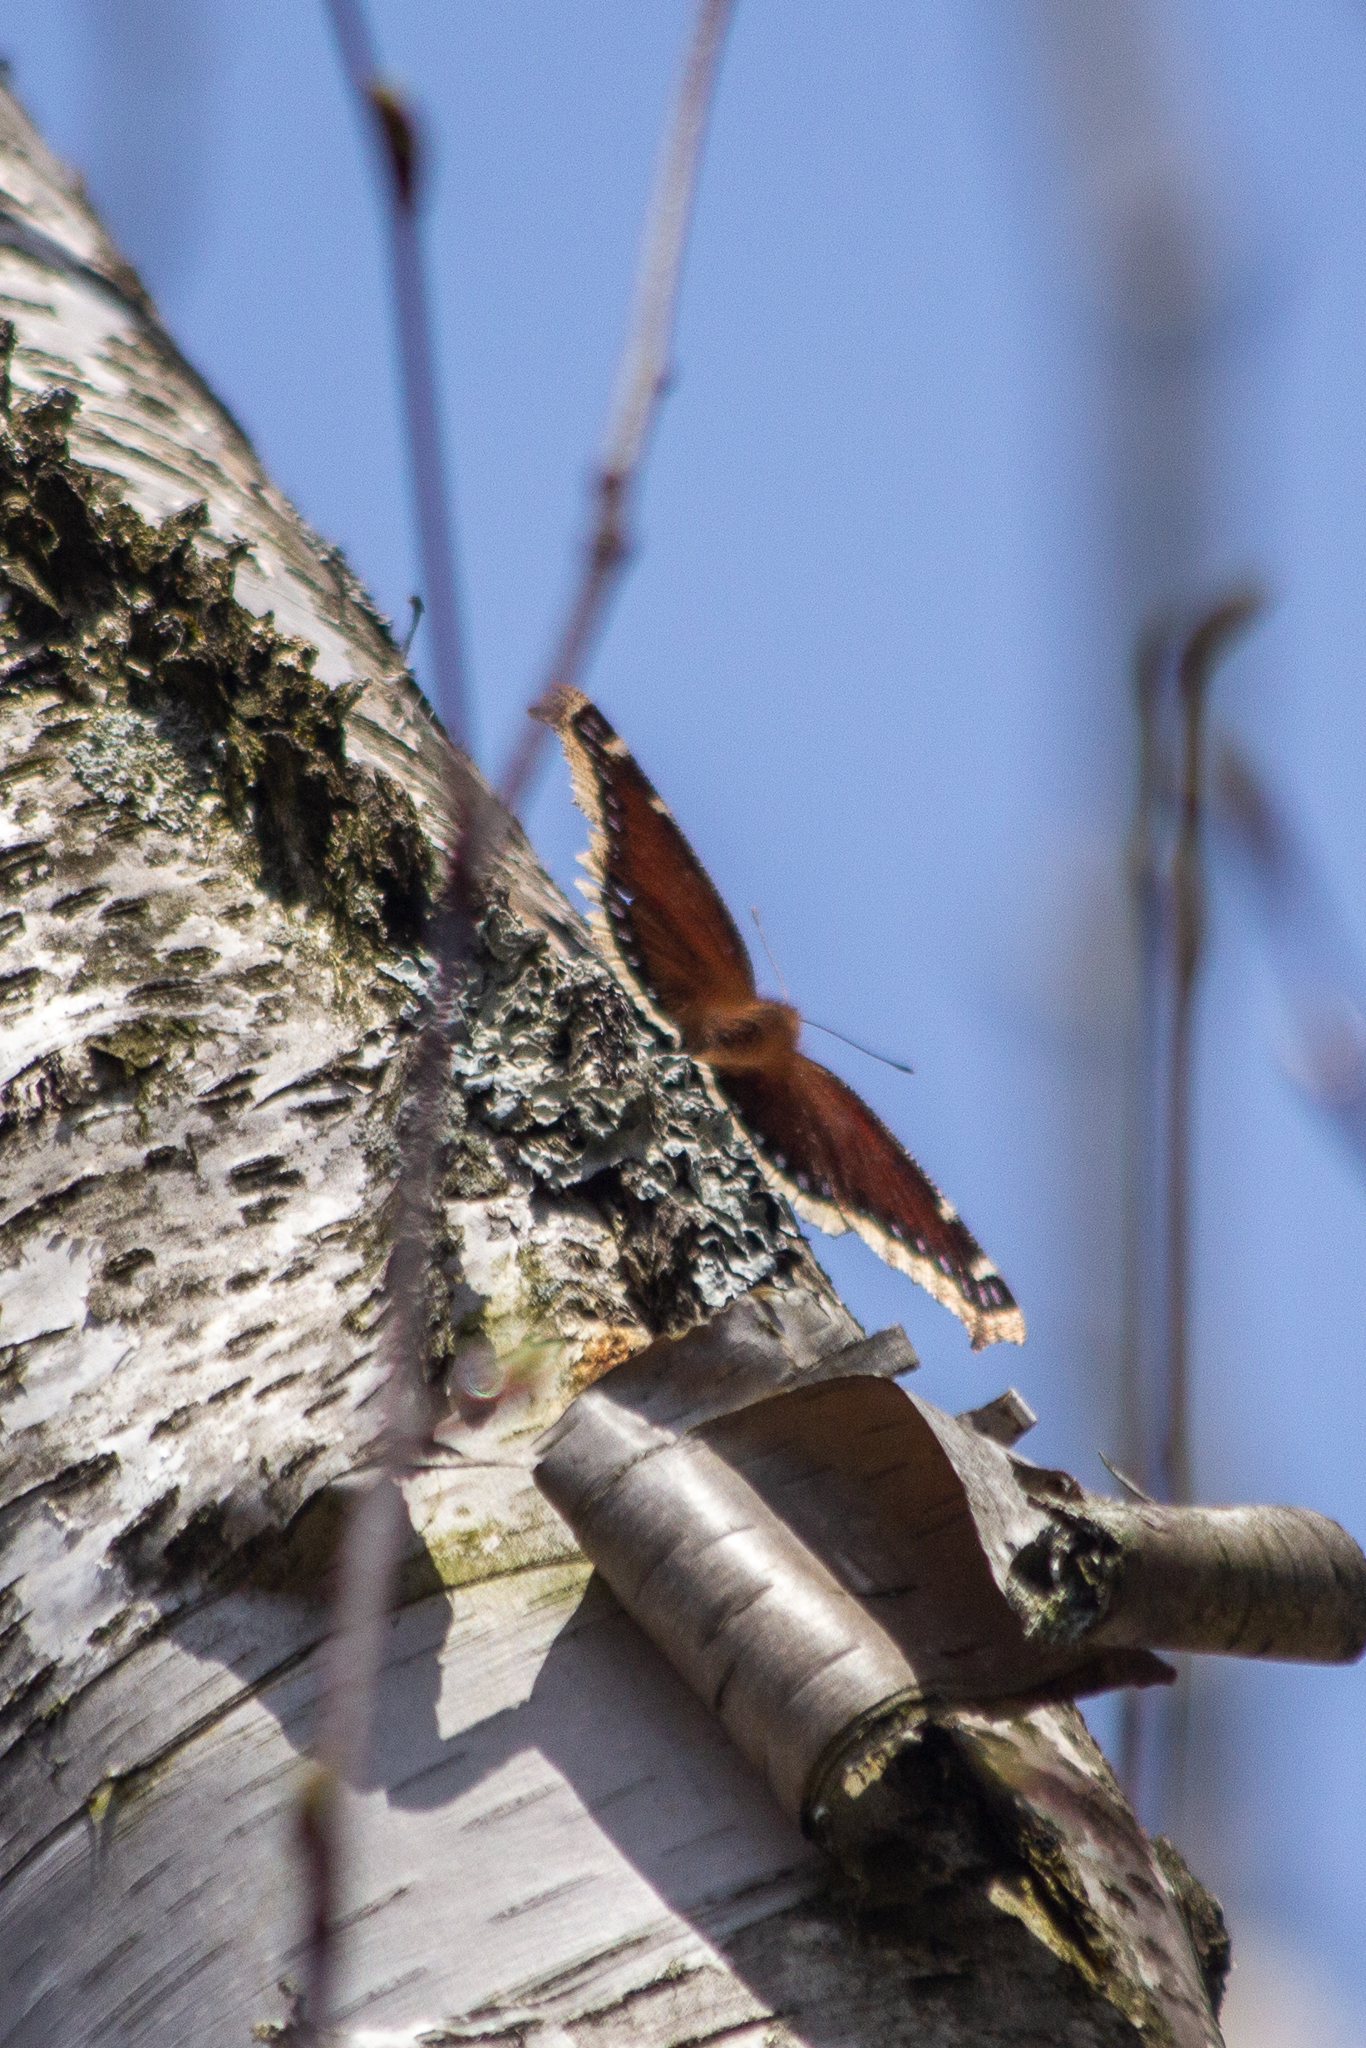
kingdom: Animalia
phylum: Arthropoda
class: Insecta
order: Lepidoptera
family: Nymphalidae
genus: Nymphalis
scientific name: Nymphalis antiopa
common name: Camberwell beauty
